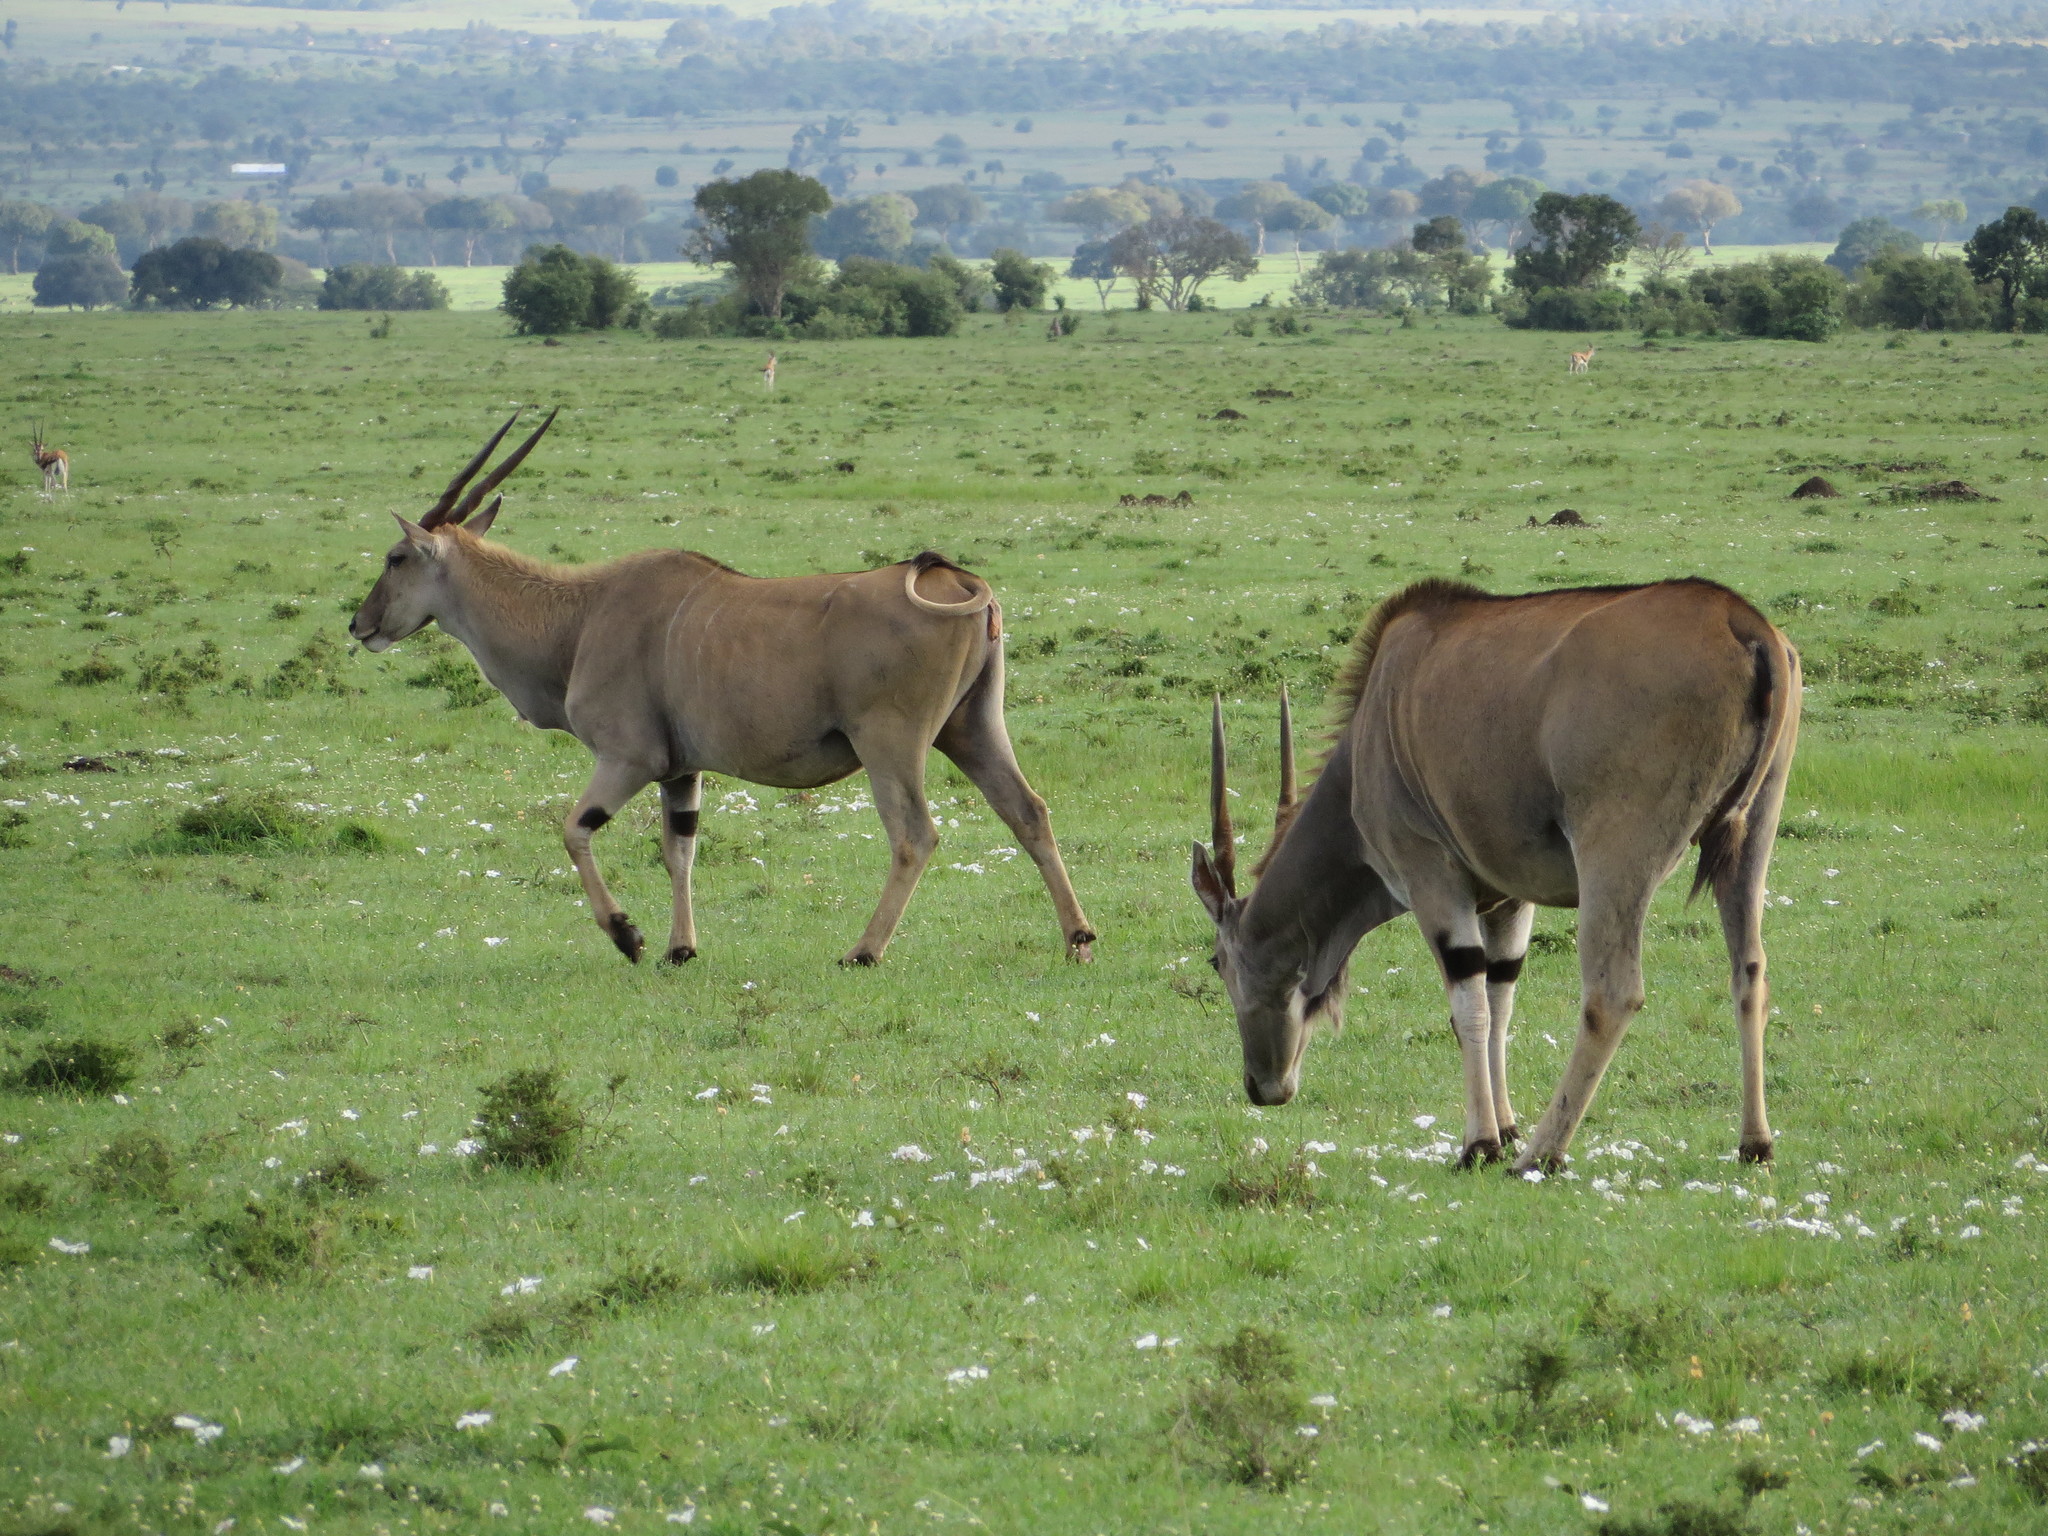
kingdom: Animalia
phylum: Chordata
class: Mammalia
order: Artiodactyla
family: Bovidae
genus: Taurotragus
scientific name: Taurotragus oryx
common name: Common eland
